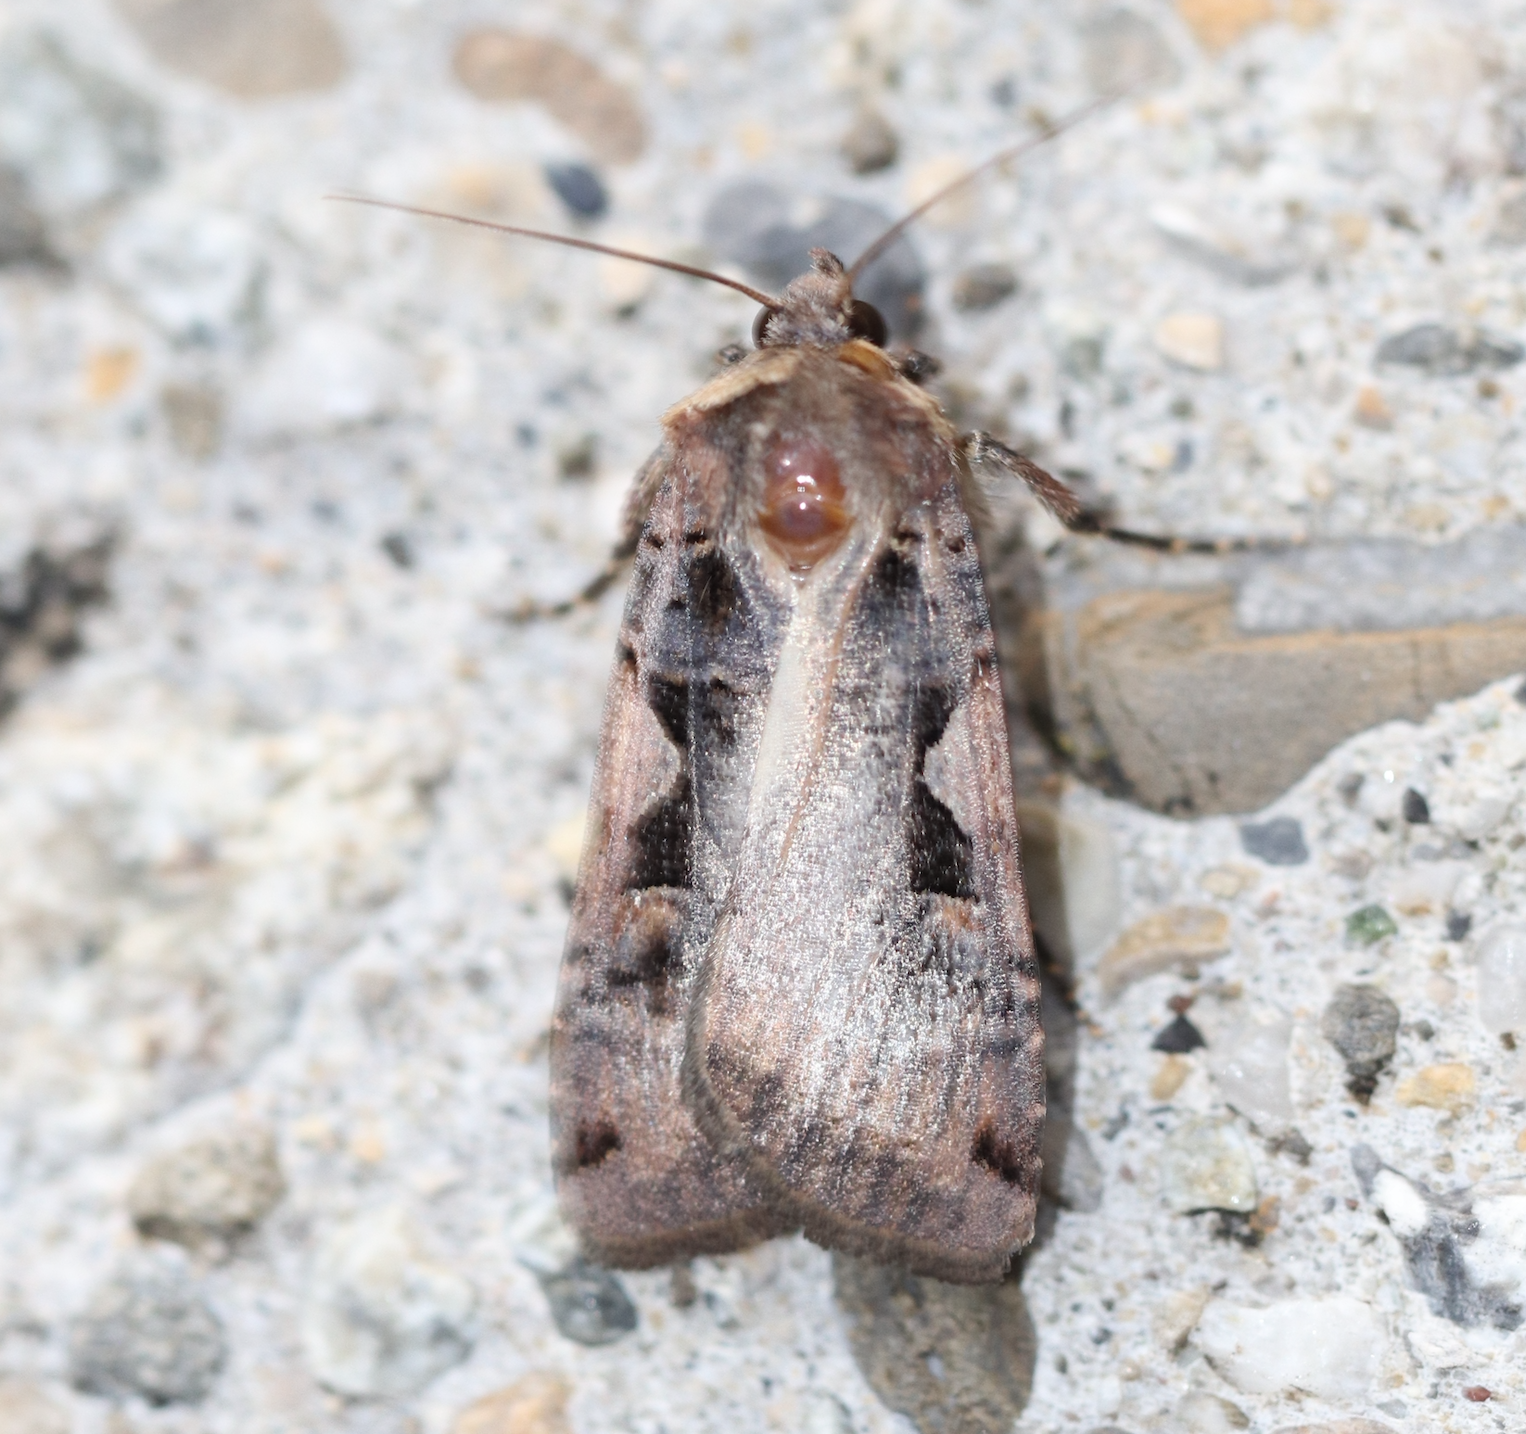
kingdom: Animalia
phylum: Arthropoda
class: Insecta
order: Lepidoptera
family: Noctuidae
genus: Xestia
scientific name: Xestia c-nigrum
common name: Setaceous hebrew character
